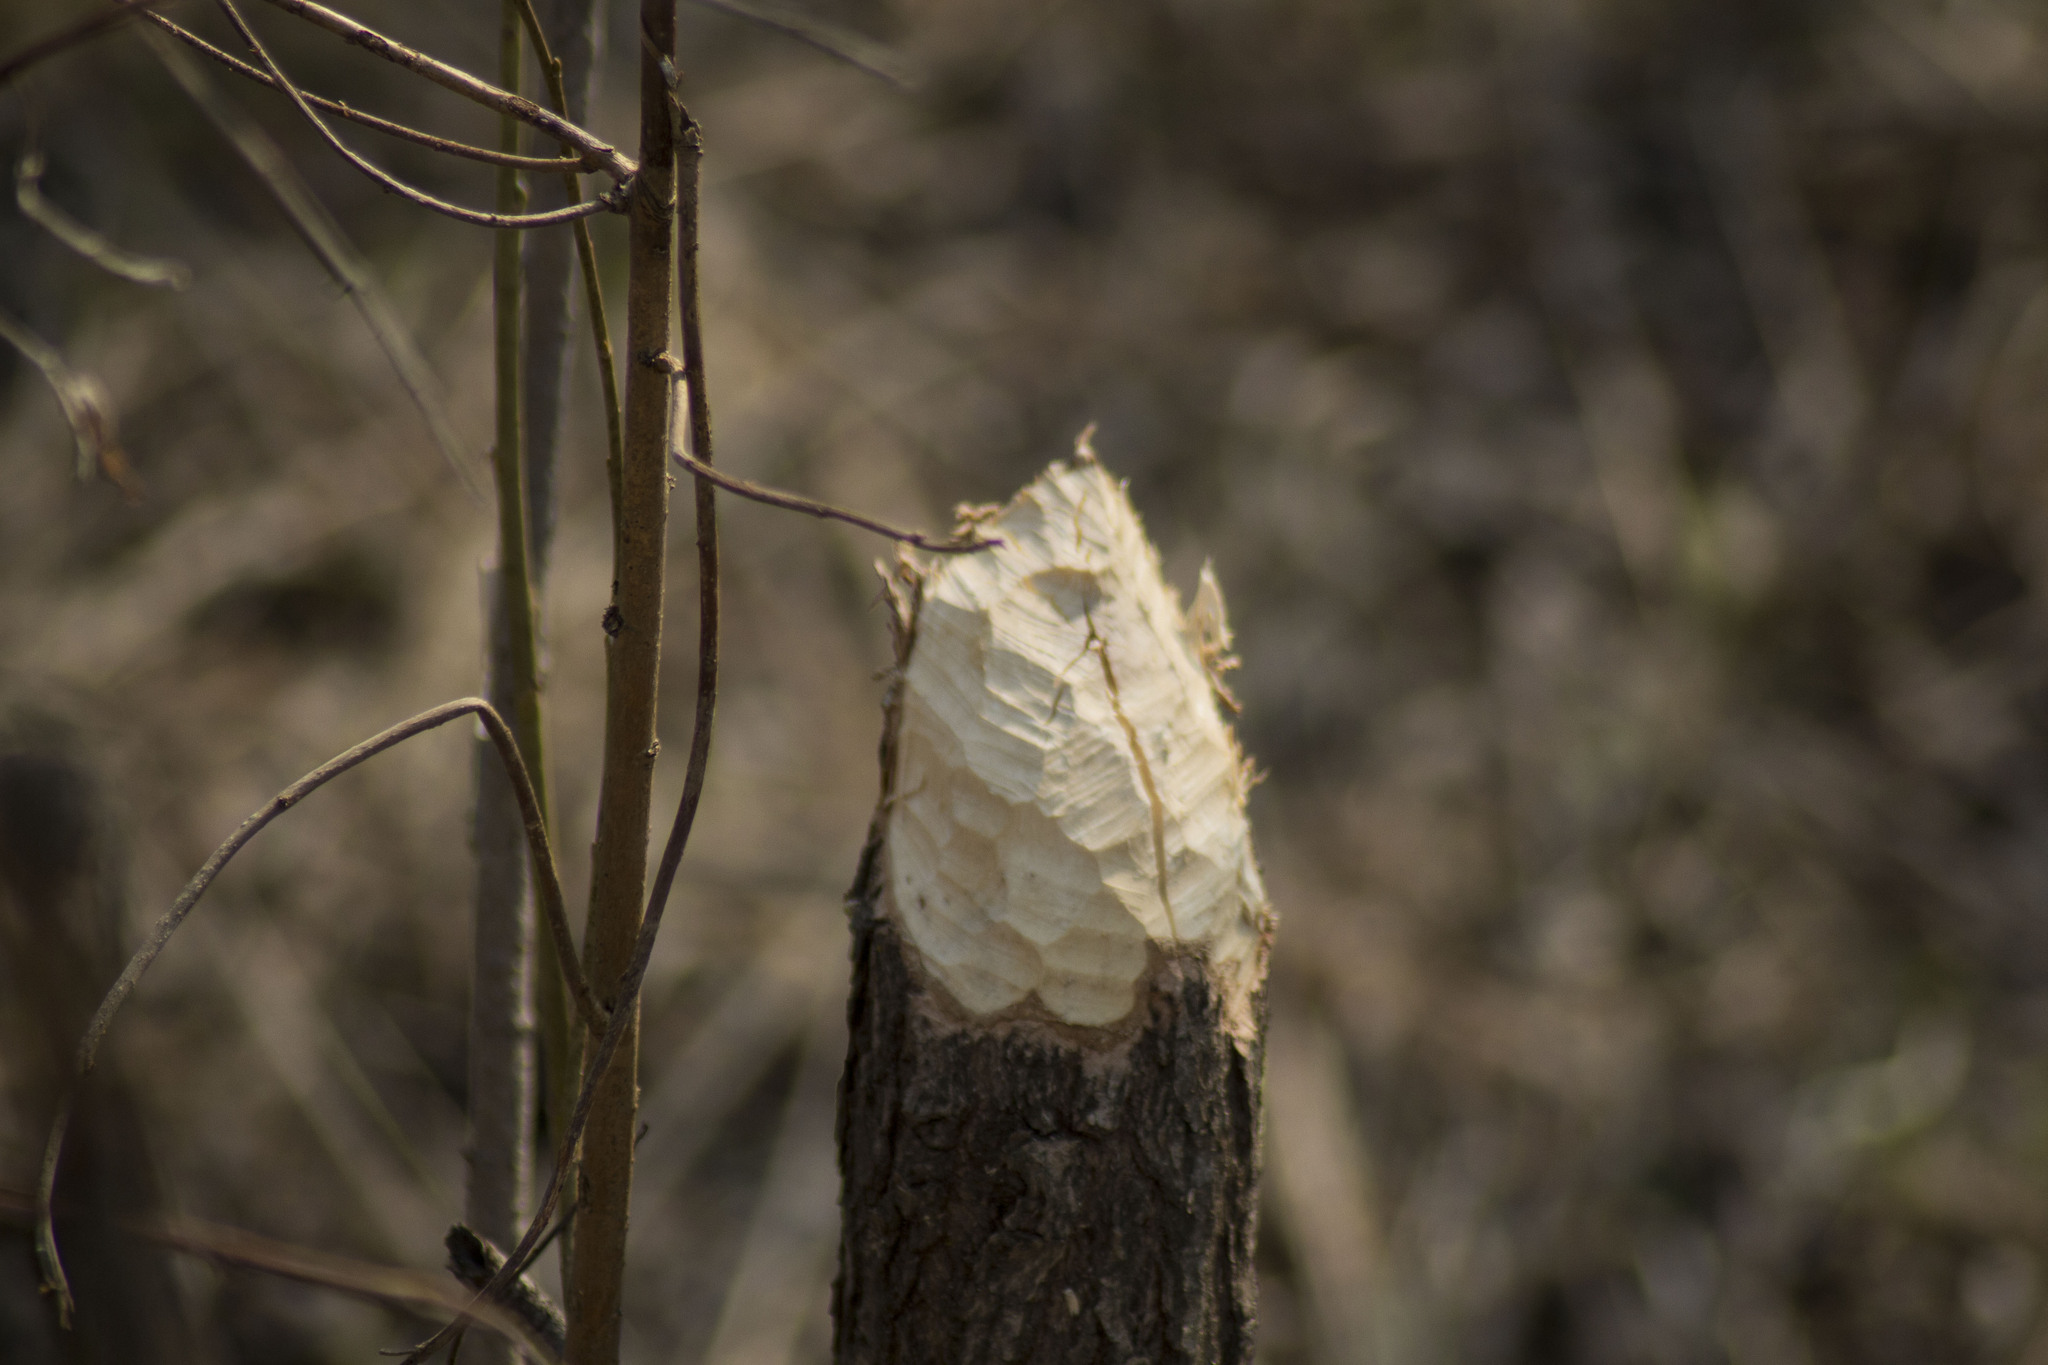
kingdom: Animalia
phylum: Chordata
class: Mammalia
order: Rodentia
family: Castoridae
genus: Castor
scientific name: Castor fiber
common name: Eurasian beaver
